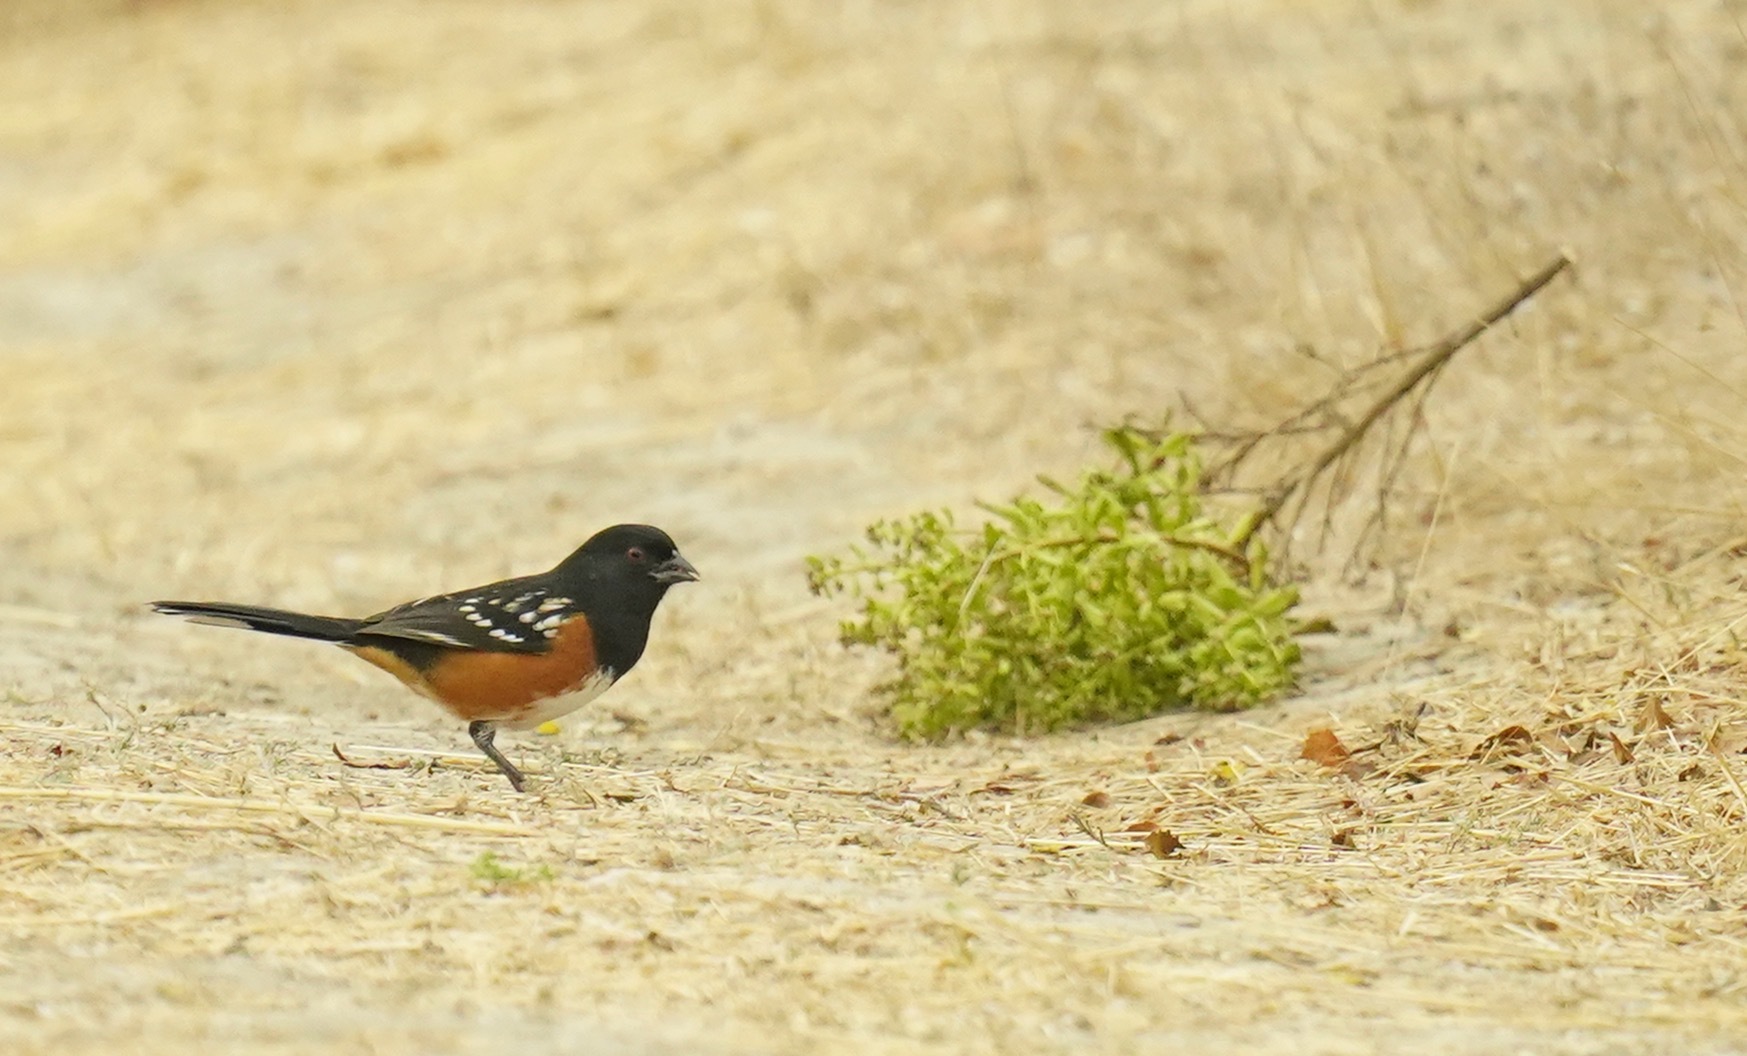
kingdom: Animalia
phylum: Chordata
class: Aves
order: Passeriformes
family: Passerellidae
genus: Pipilo
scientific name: Pipilo maculatus
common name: Spotted towhee
